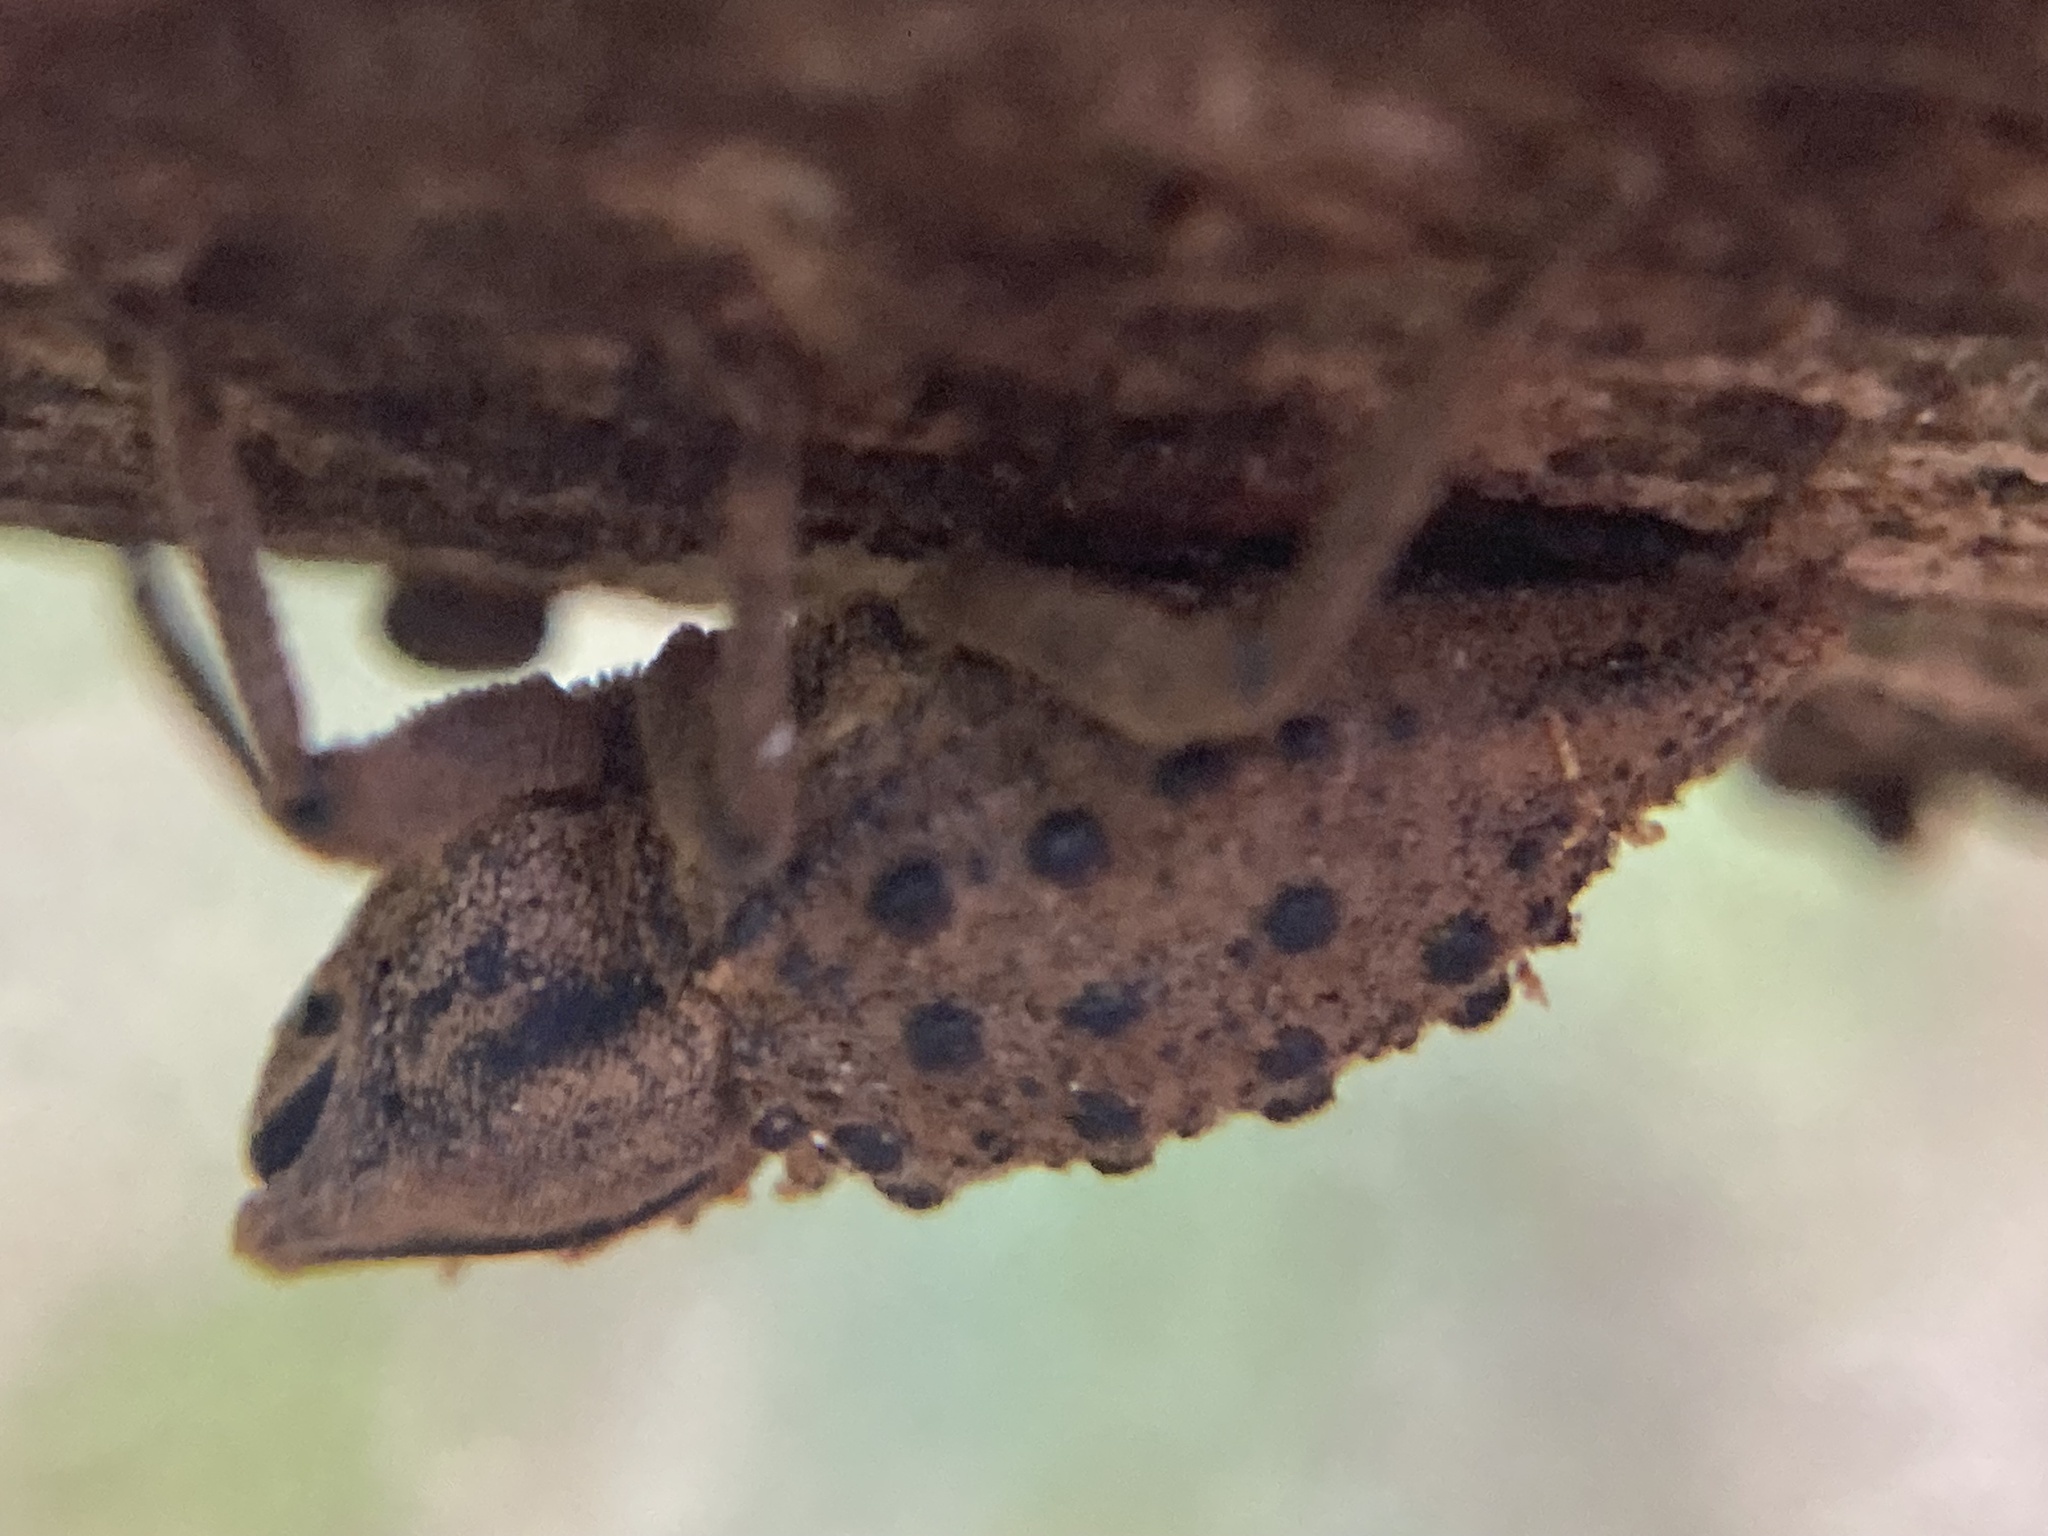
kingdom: Animalia
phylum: Arthropoda
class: Insecta
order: Coleoptera
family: Curculionidae
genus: Poropterus
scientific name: Poropterus ellipticus
